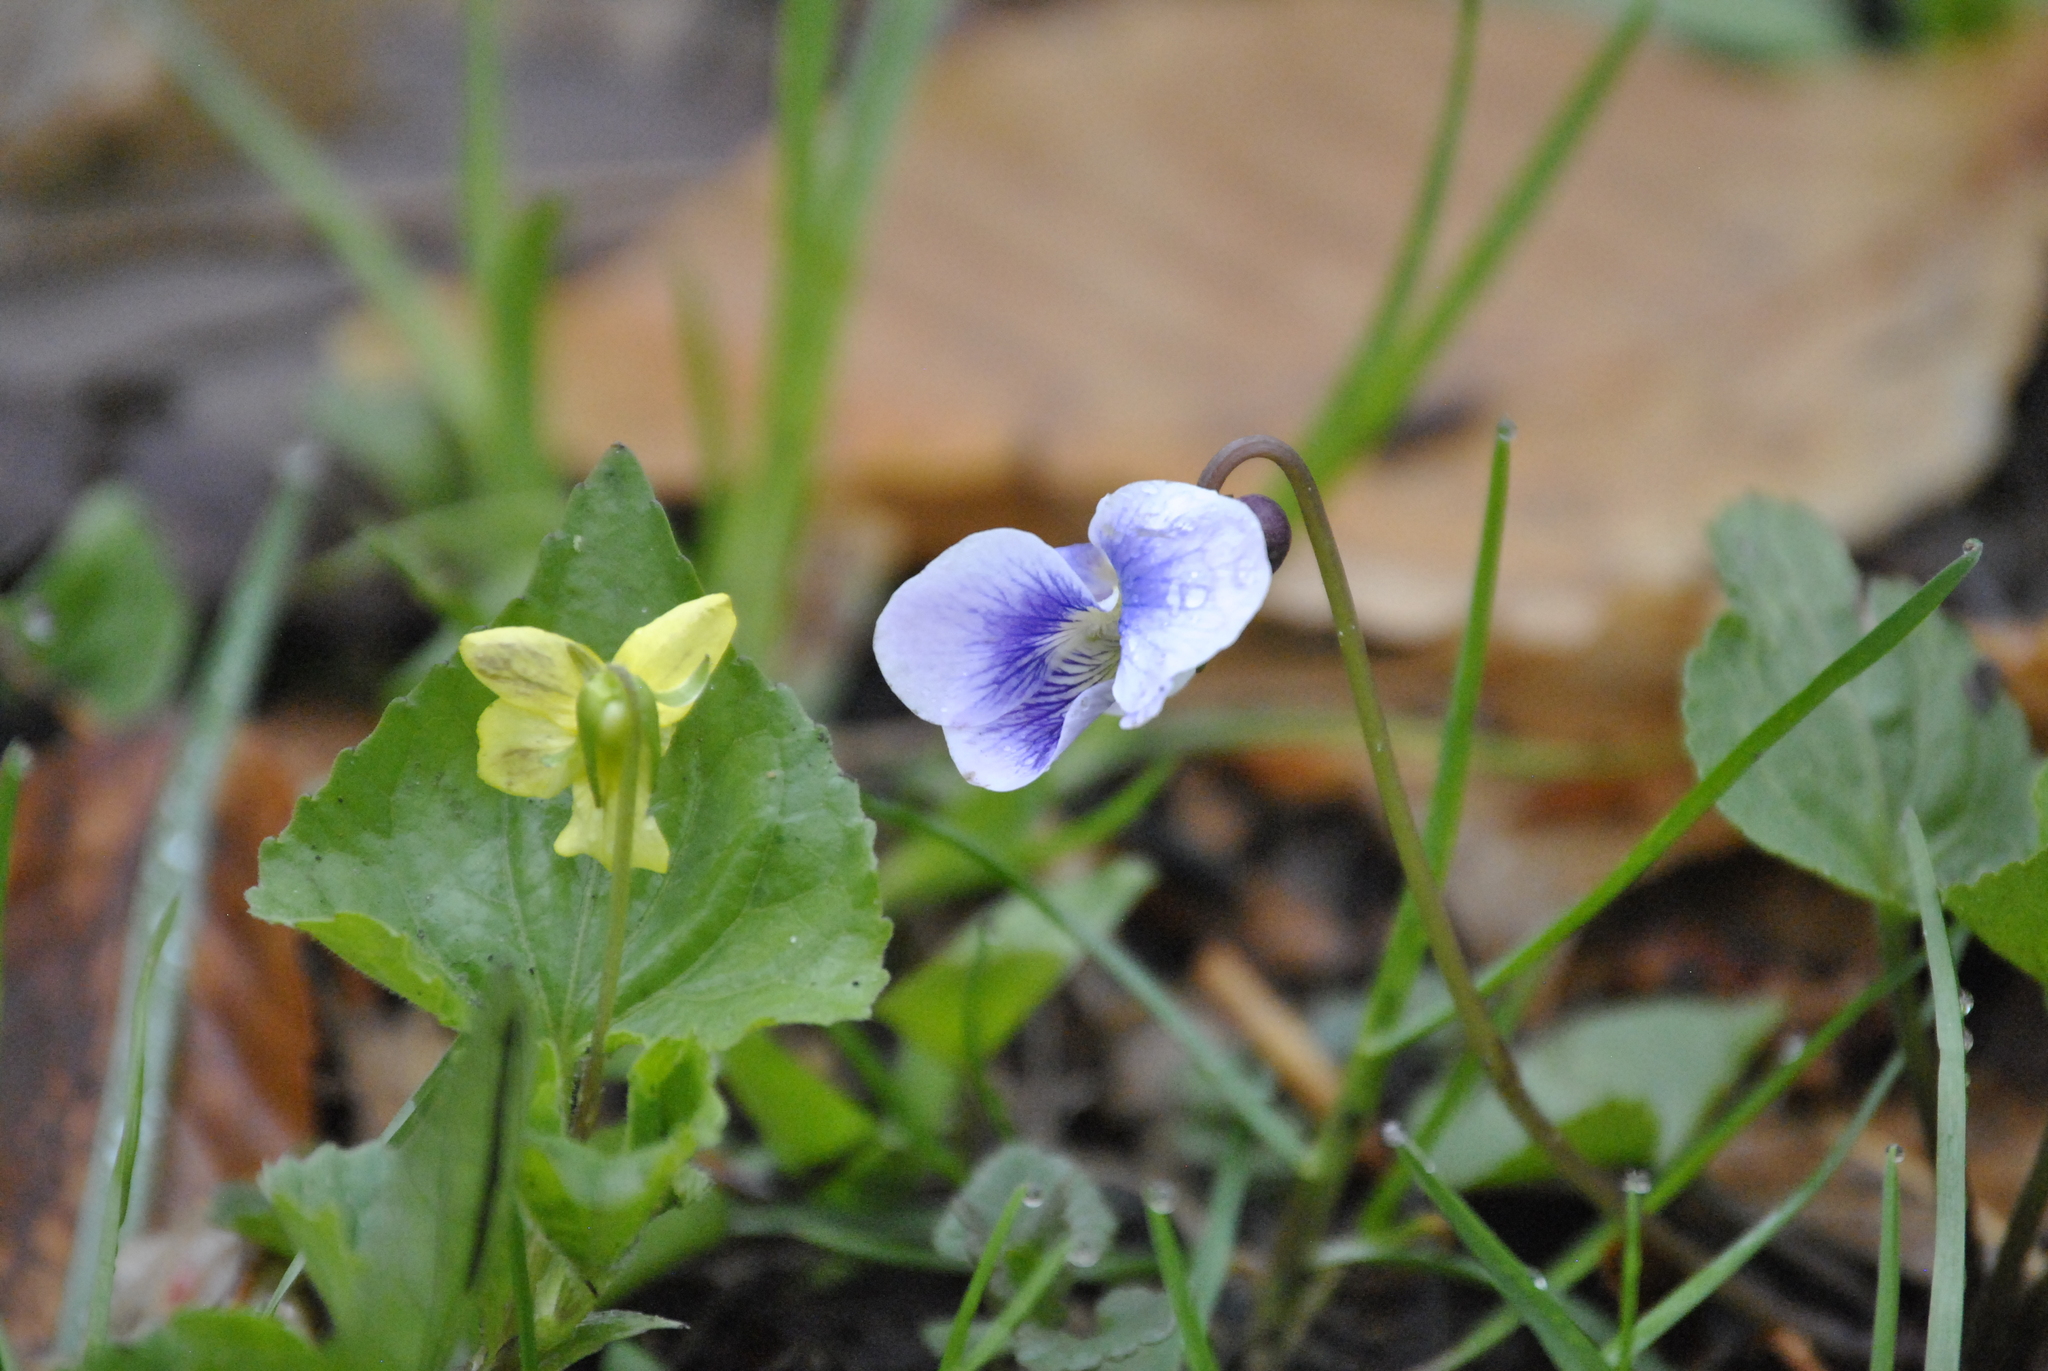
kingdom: Plantae
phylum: Tracheophyta
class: Magnoliopsida
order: Malpighiales
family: Violaceae
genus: Viola
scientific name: Viola eriocarpa
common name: Smooth yellow violet
